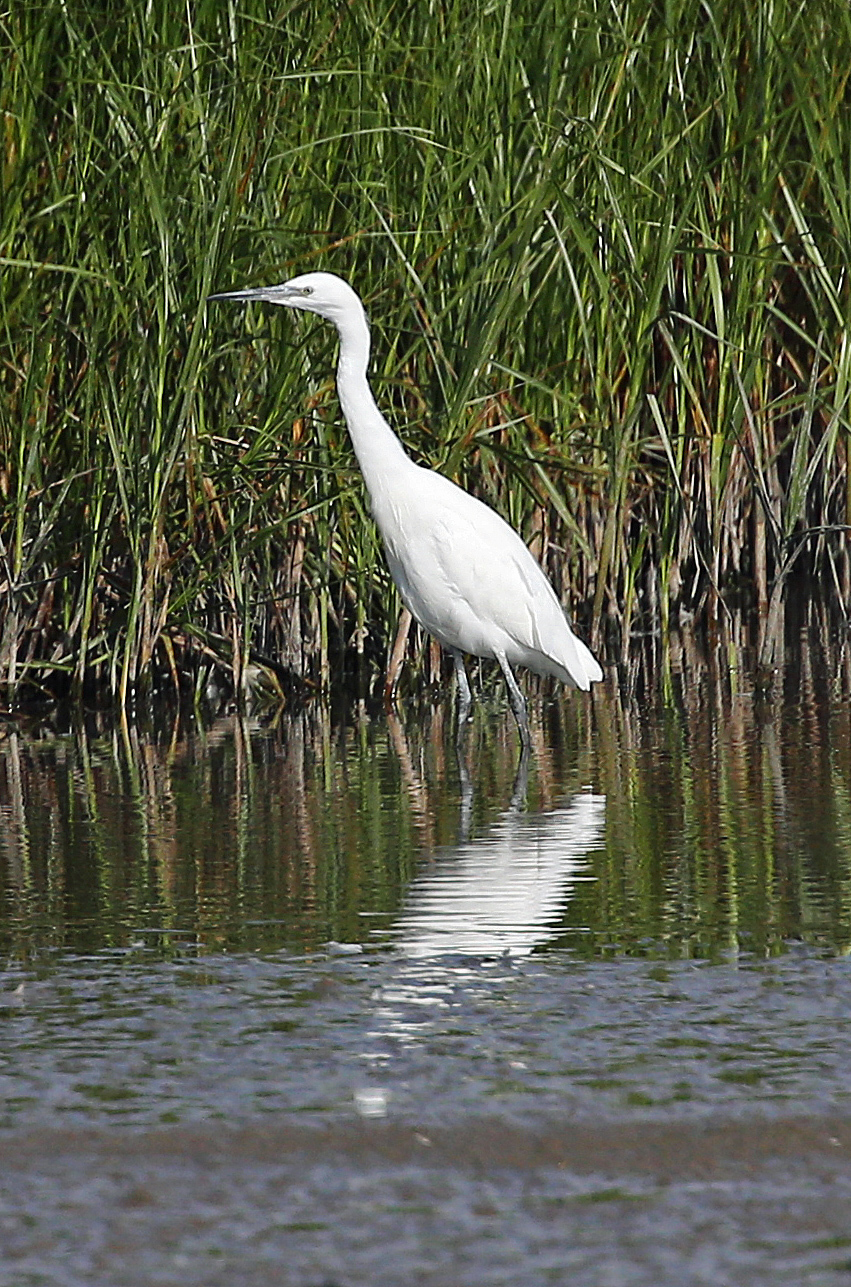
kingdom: Animalia
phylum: Chordata
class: Aves
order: Pelecaniformes
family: Ardeidae
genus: Egretta
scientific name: Egretta garzetta
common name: Little egret
